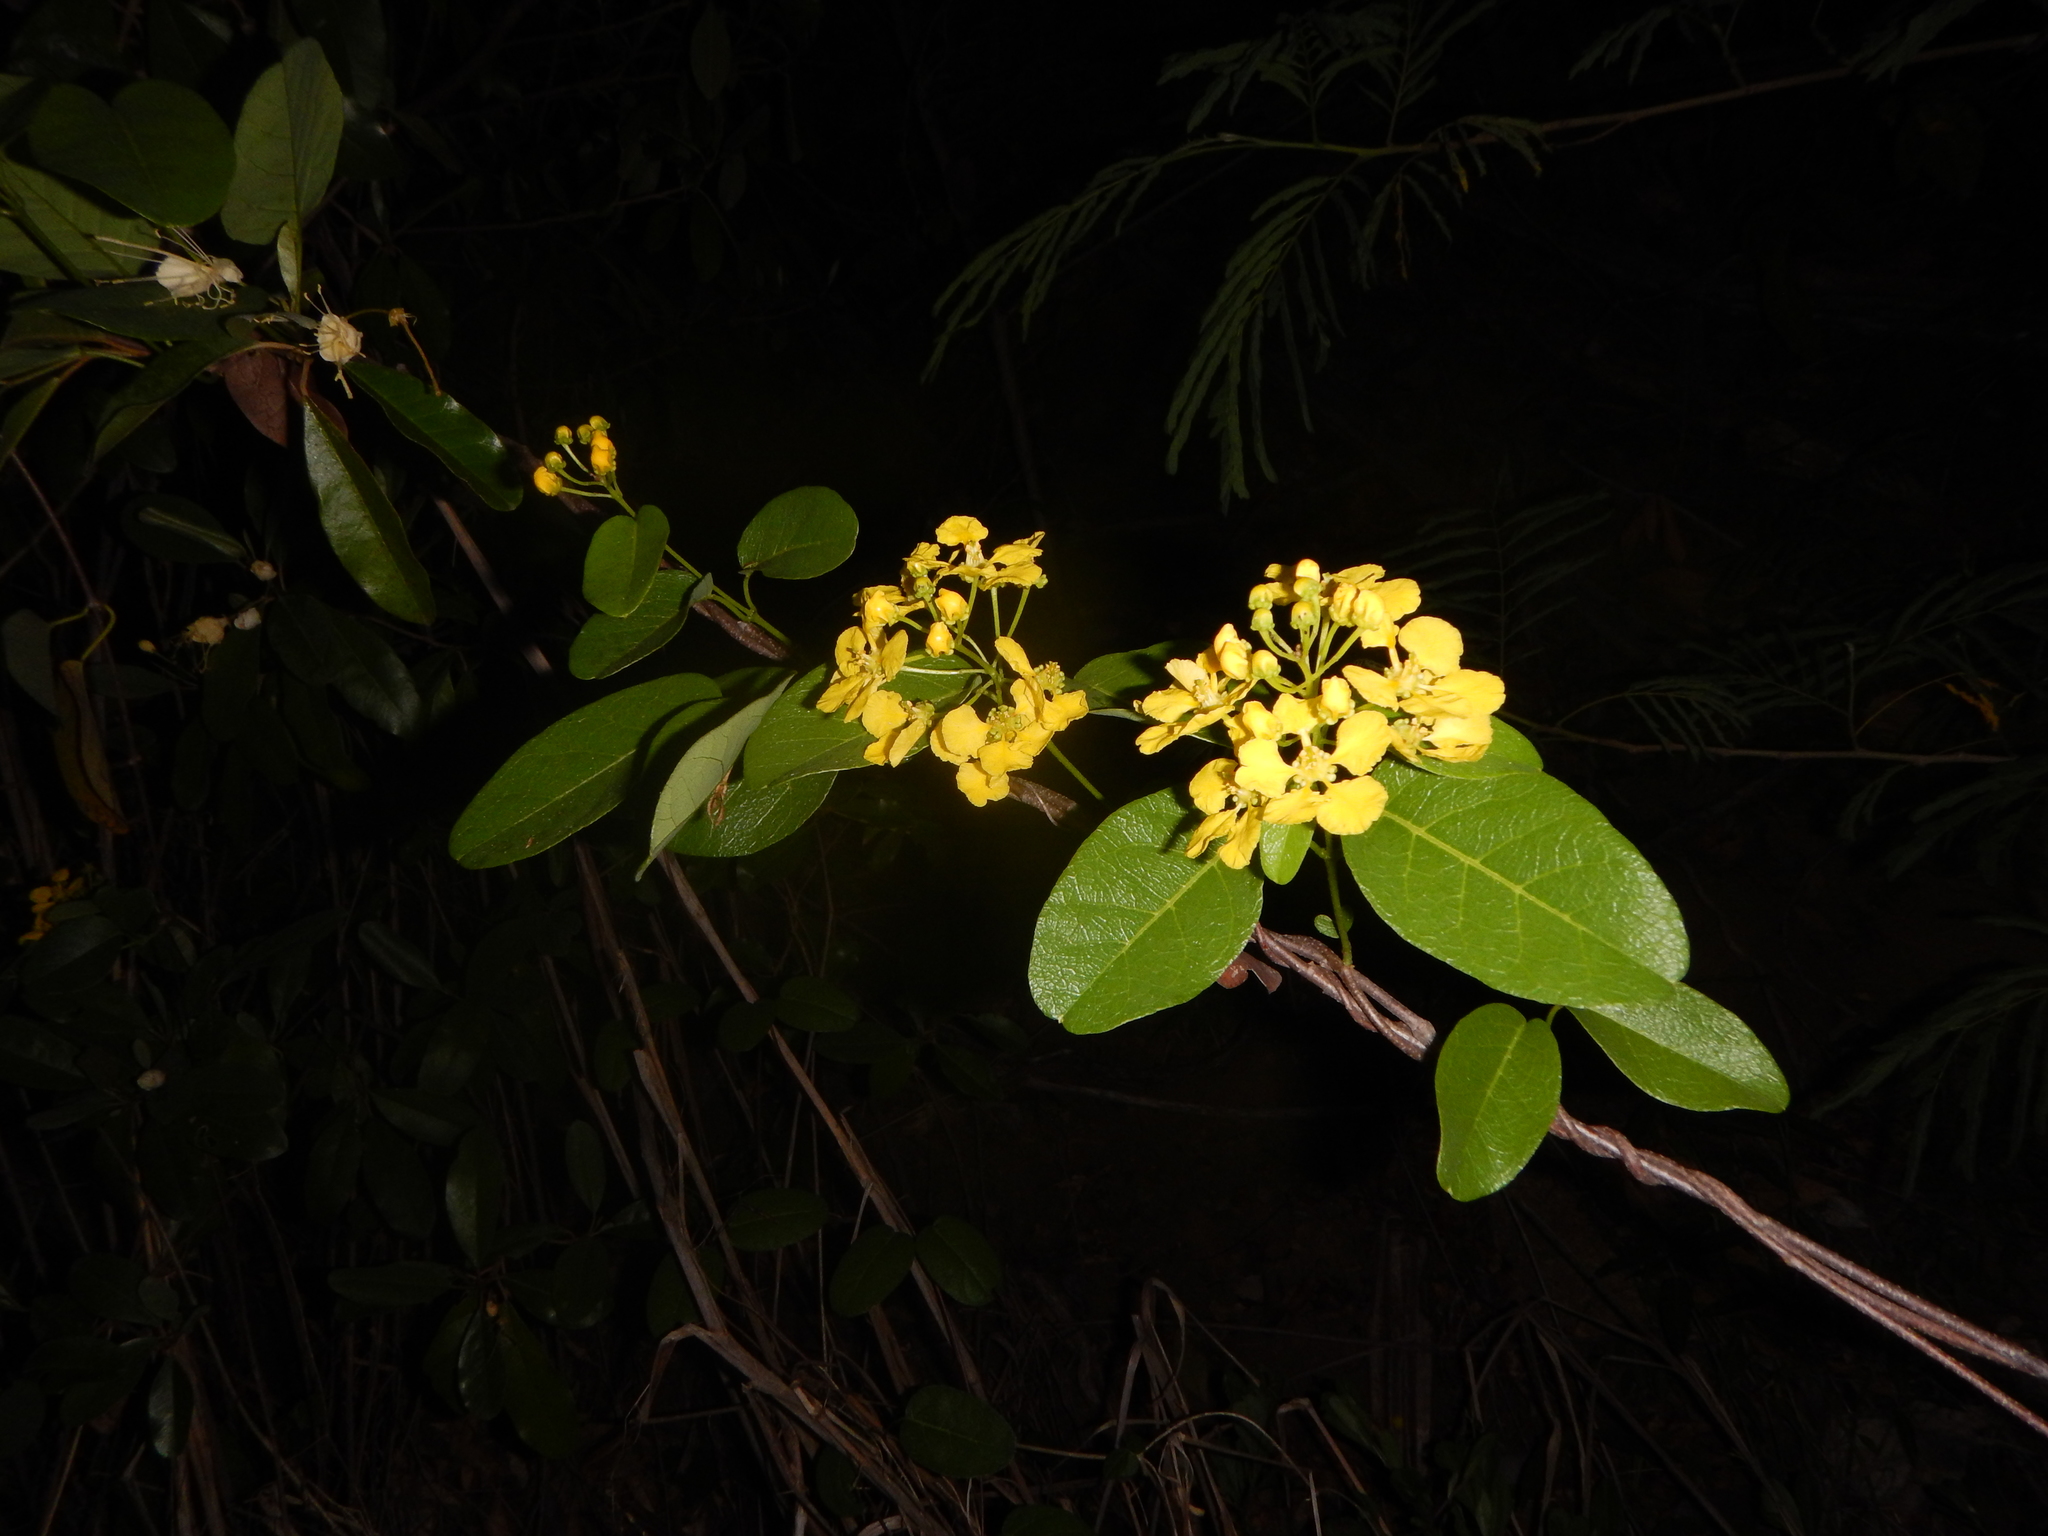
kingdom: Plantae
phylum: Tracheophyta
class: Magnoliopsida
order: Malpighiales
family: Malpighiaceae
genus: Stigmaphyllon
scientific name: Stigmaphyllon emarginatum
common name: Monarch amazonvine
